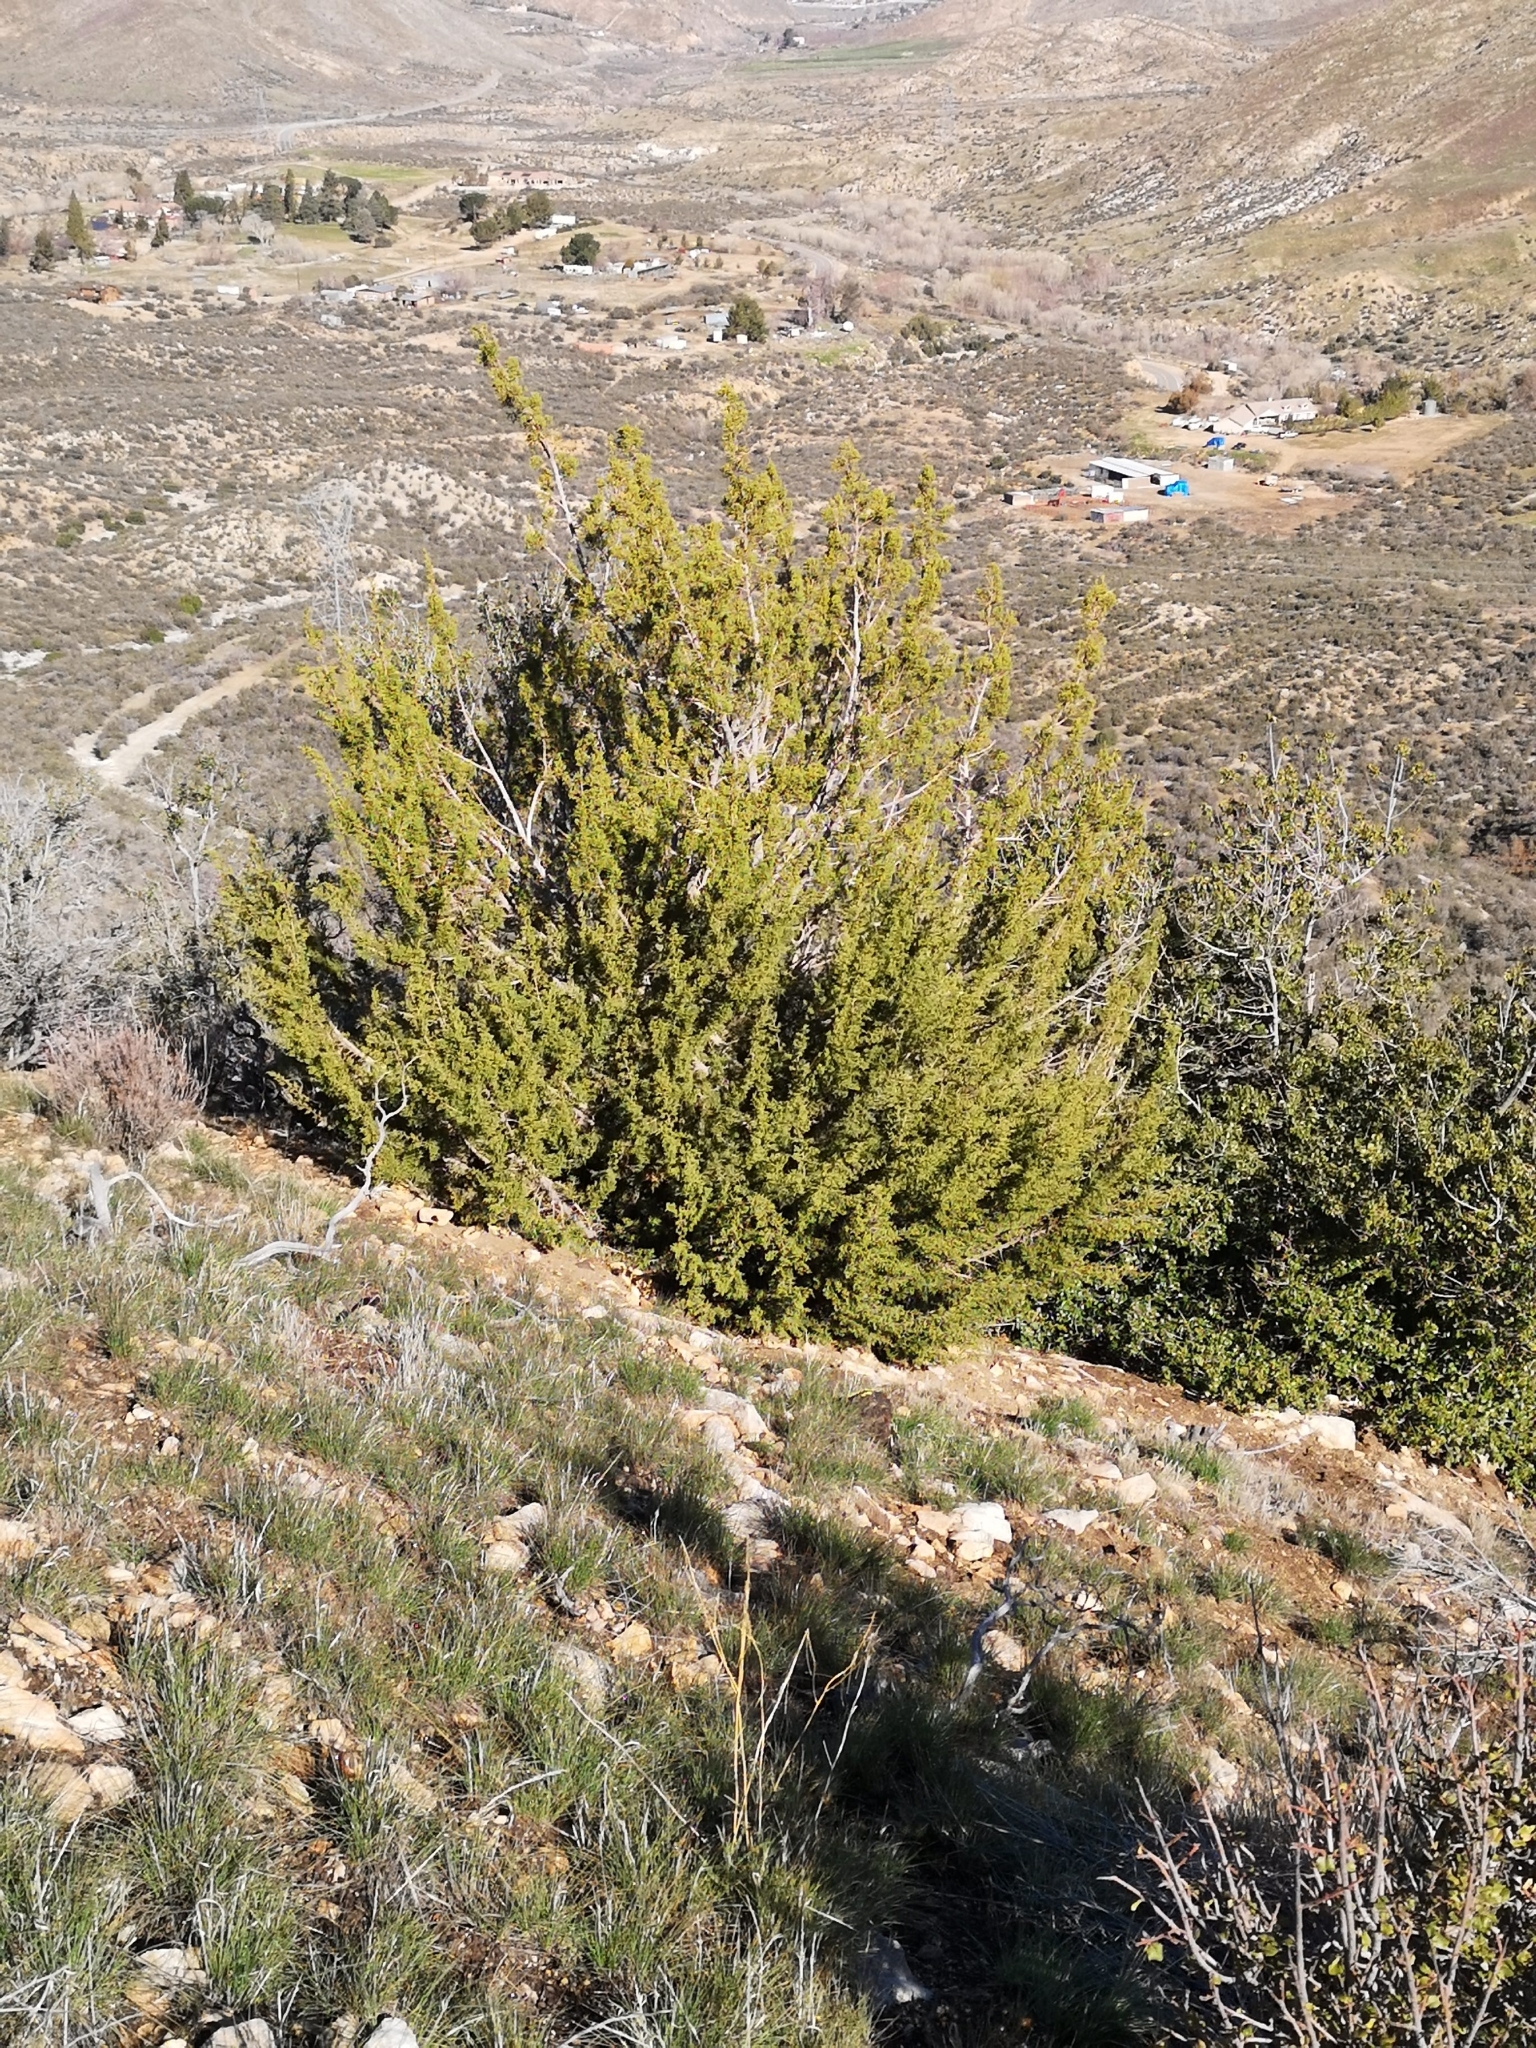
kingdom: Plantae
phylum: Tracheophyta
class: Pinopsida
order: Pinales
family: Cupressaceae
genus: Juniperus
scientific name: Juniperus californica
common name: California juniper
